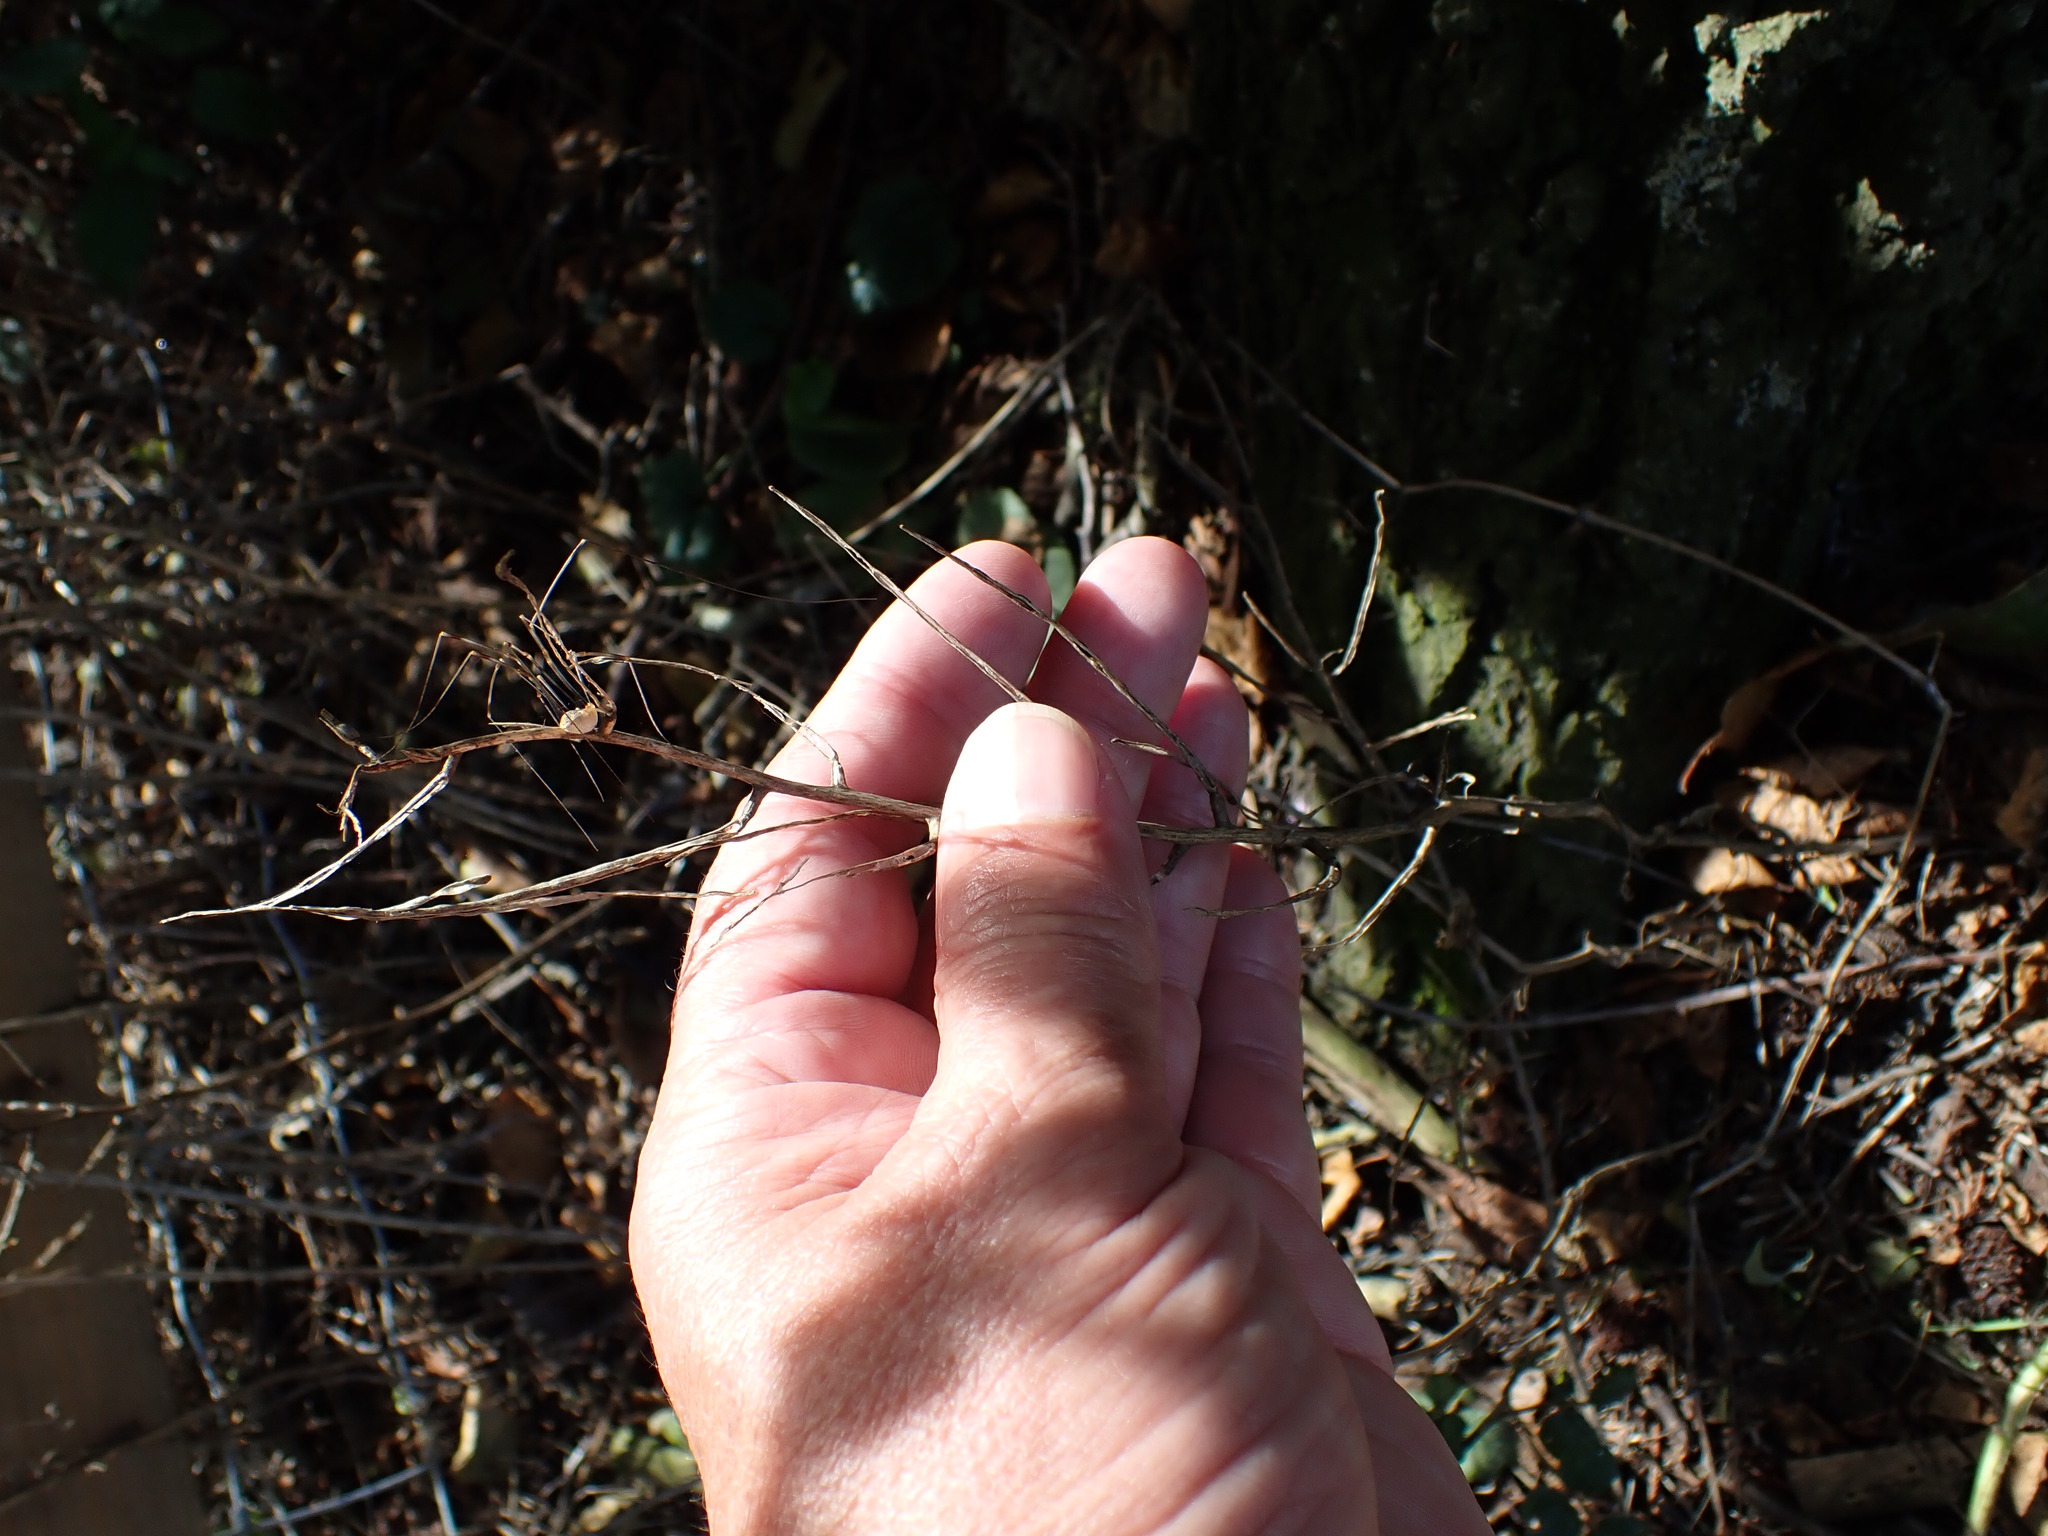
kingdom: Plantae
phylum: Tracheophyta
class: Magnoliopsida
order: Brassicales
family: Brassicaceae
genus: Alliaria
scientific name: Alliaria petiolata
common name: Garlic mustard
